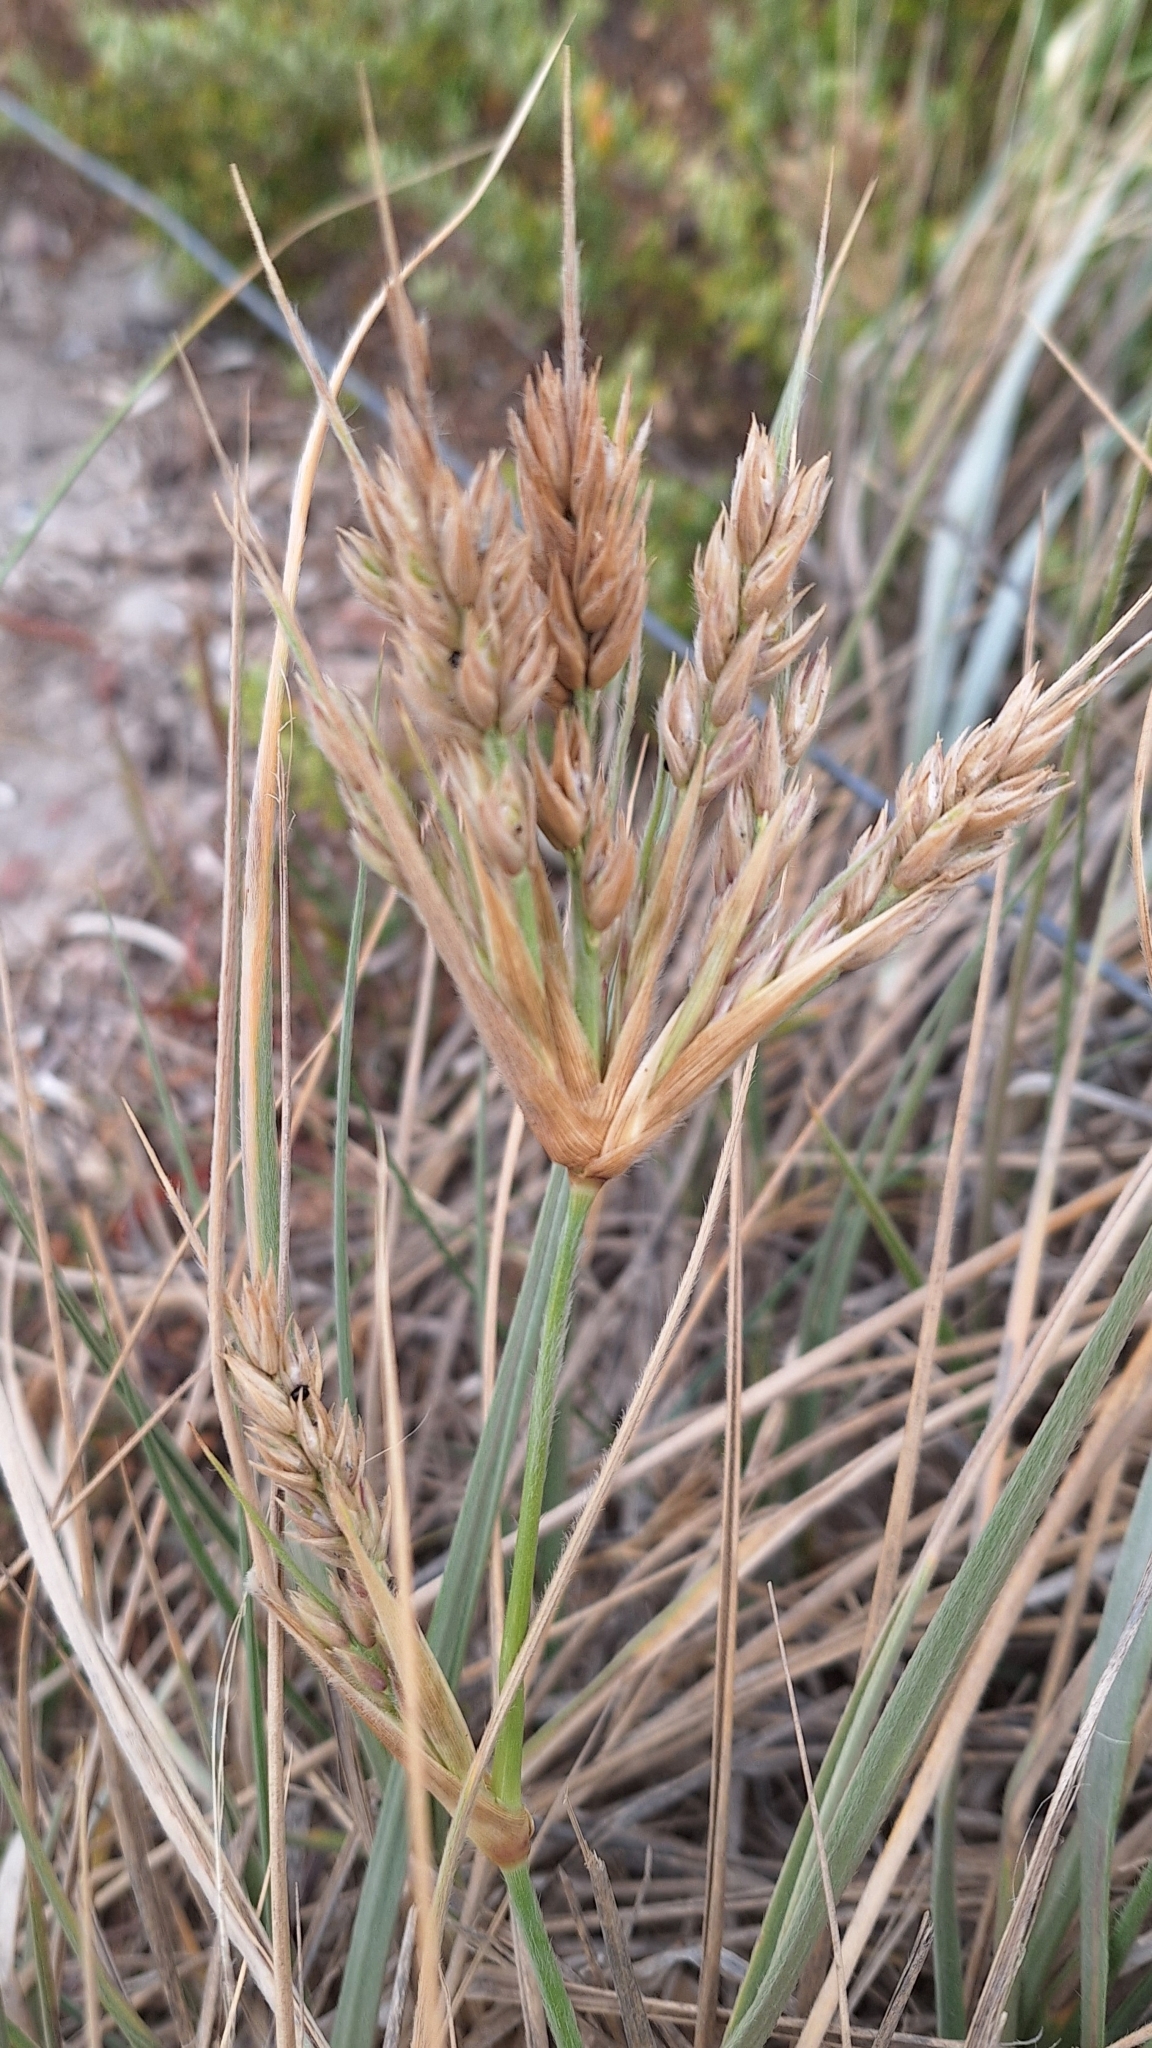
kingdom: Plantae
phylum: Tracheophyta
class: Liliopsida
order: Poales
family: Poaceae
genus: Spinifex
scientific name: Spinifex sericeus
